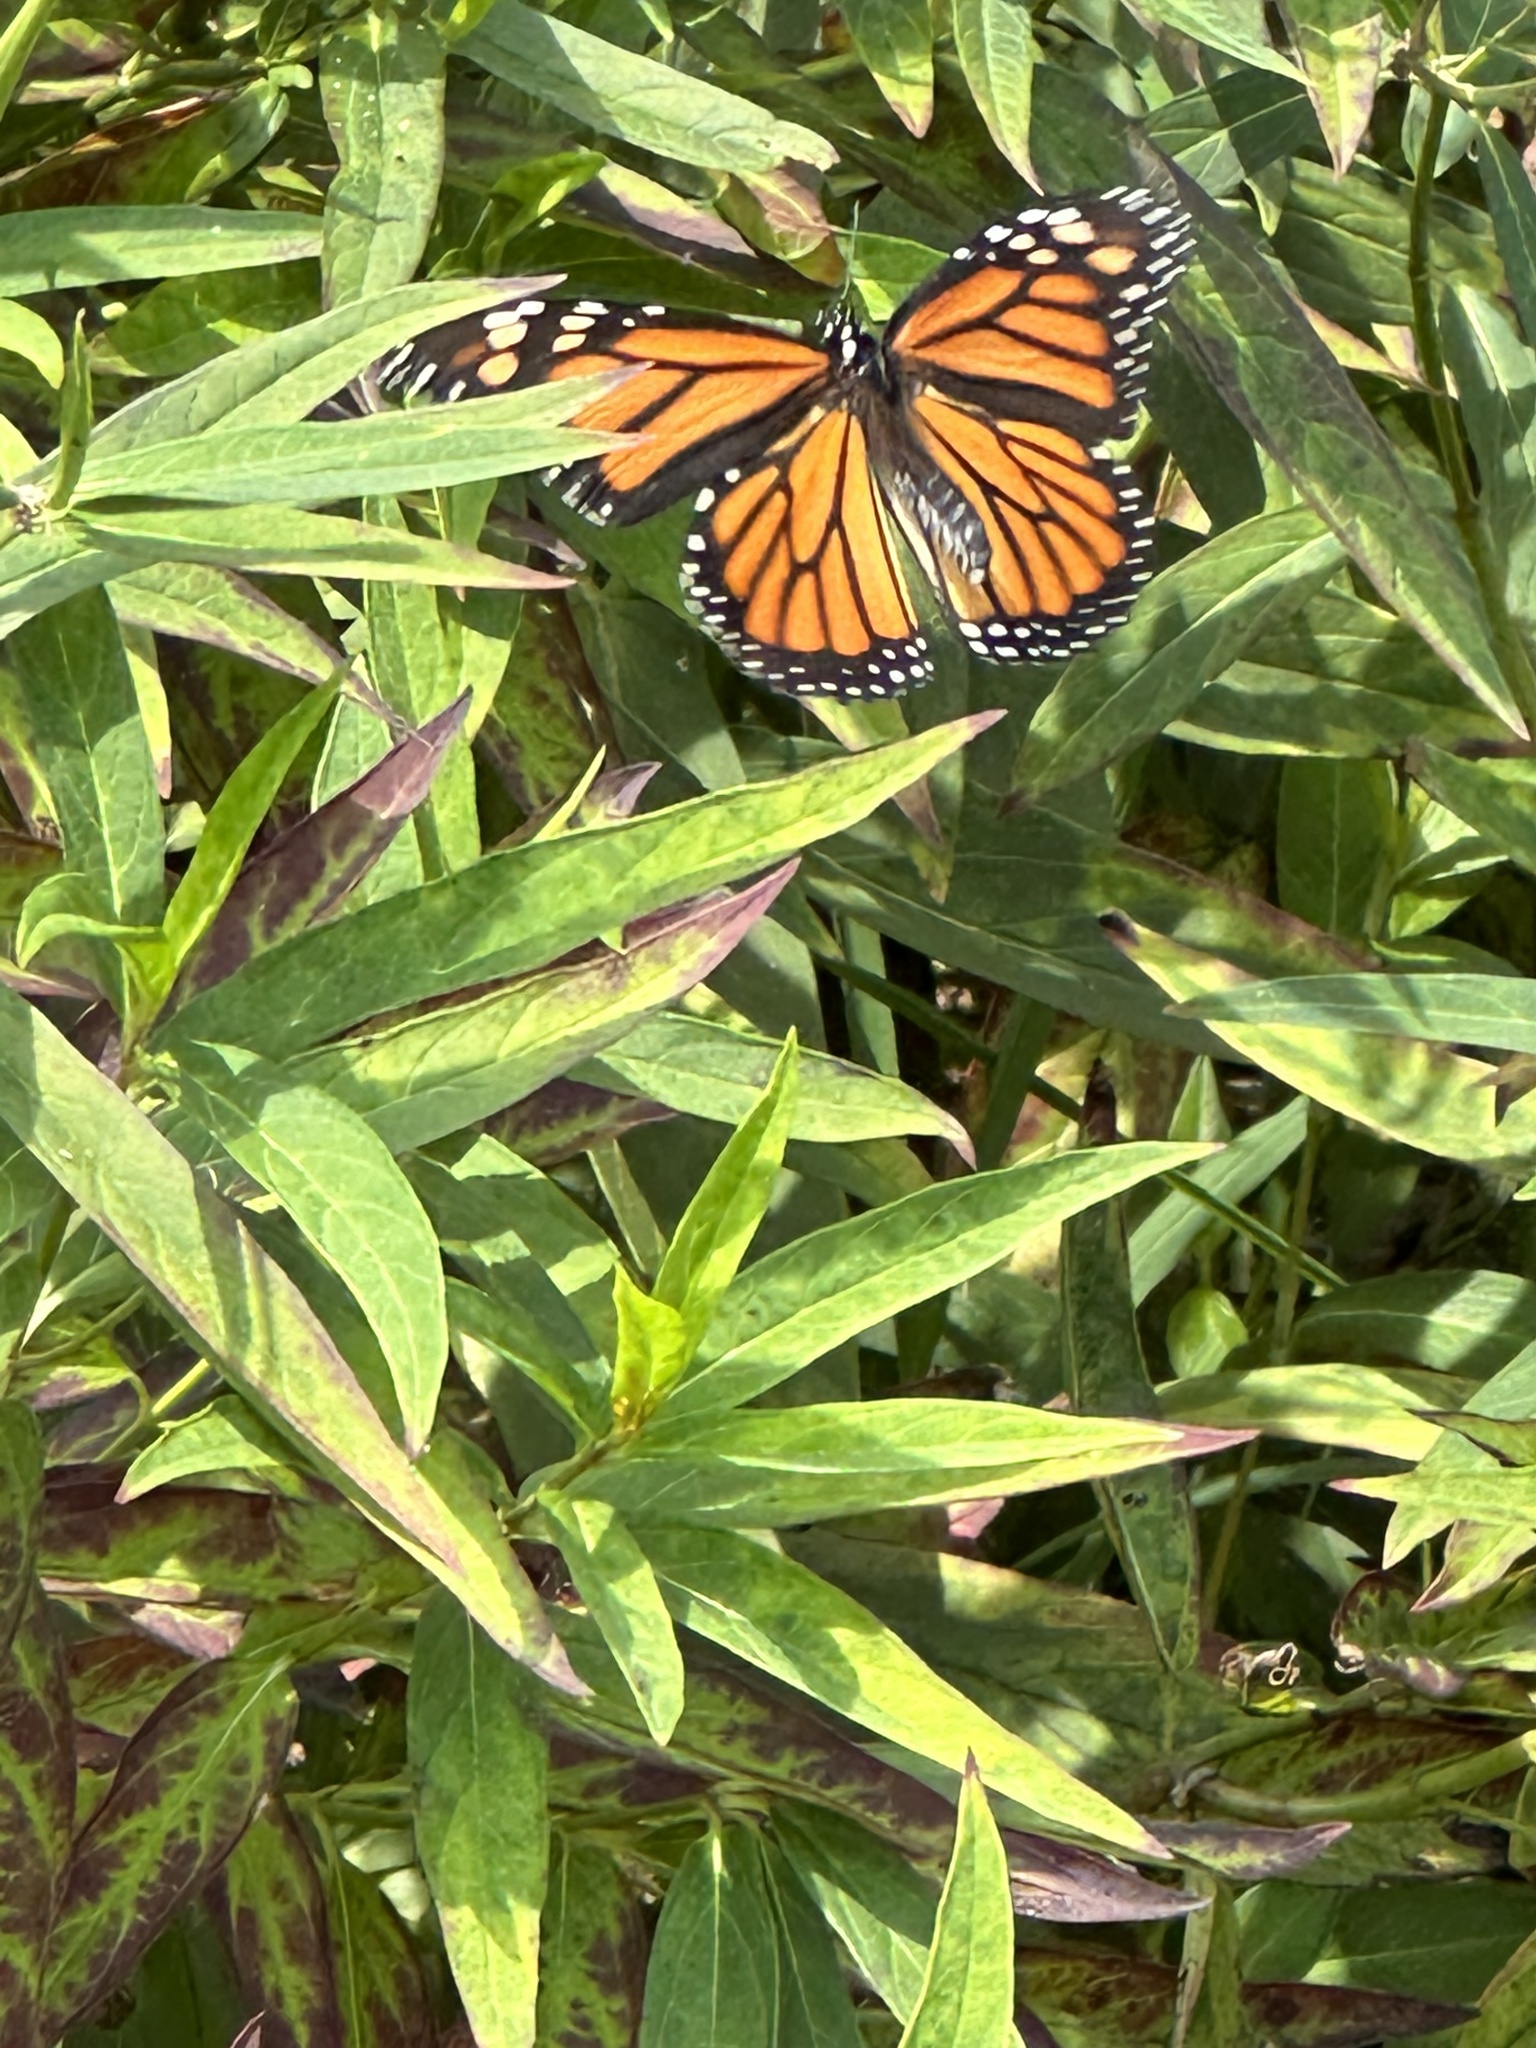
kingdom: Animalia
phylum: Arthropoda
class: Insecta
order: Lepidoptera
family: Nymphalidae
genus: Danaus
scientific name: Danaus plexippus
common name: Monarch
